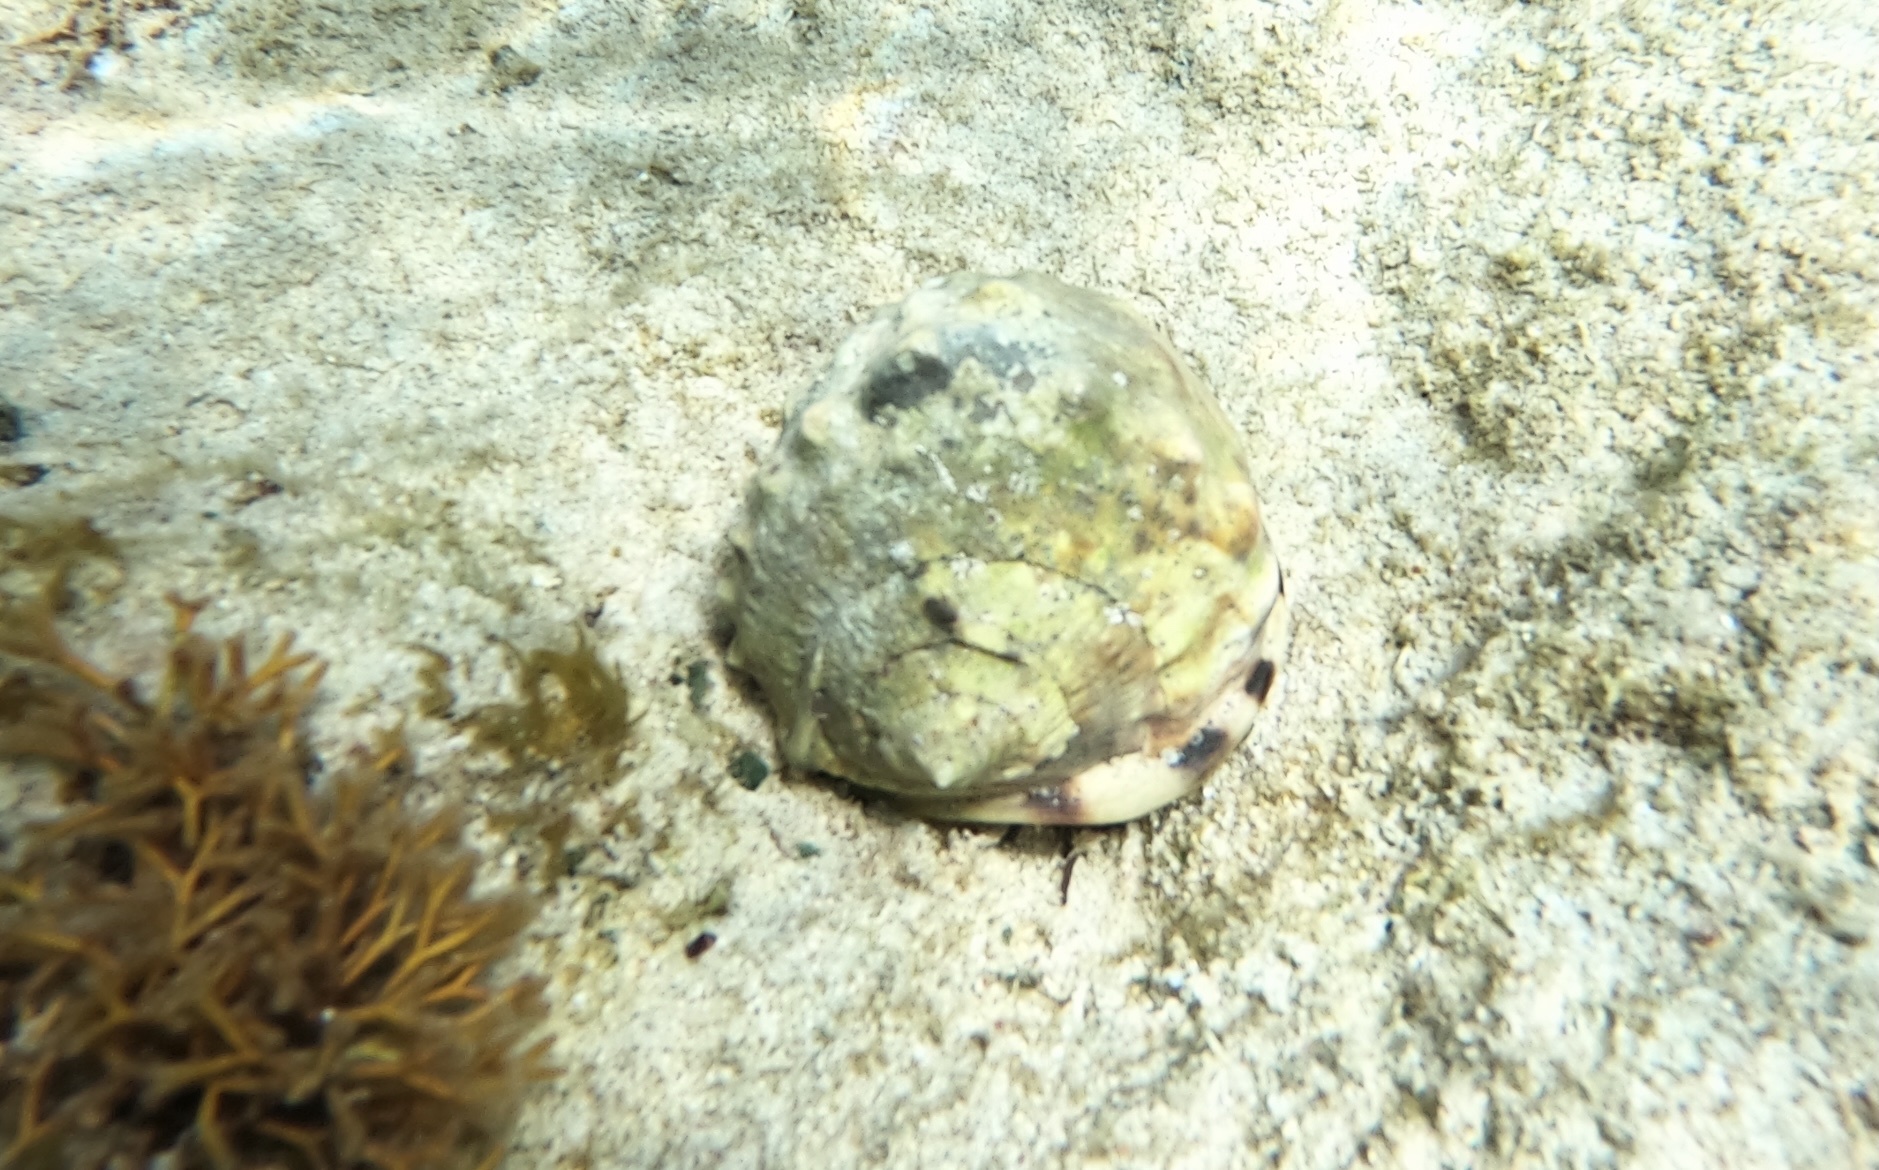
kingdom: Animalia
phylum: Mollusca
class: Gastropoda
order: Littorinimorpha
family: Cassidae
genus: Cassis
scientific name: Cassis flammea
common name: Flame helmet
